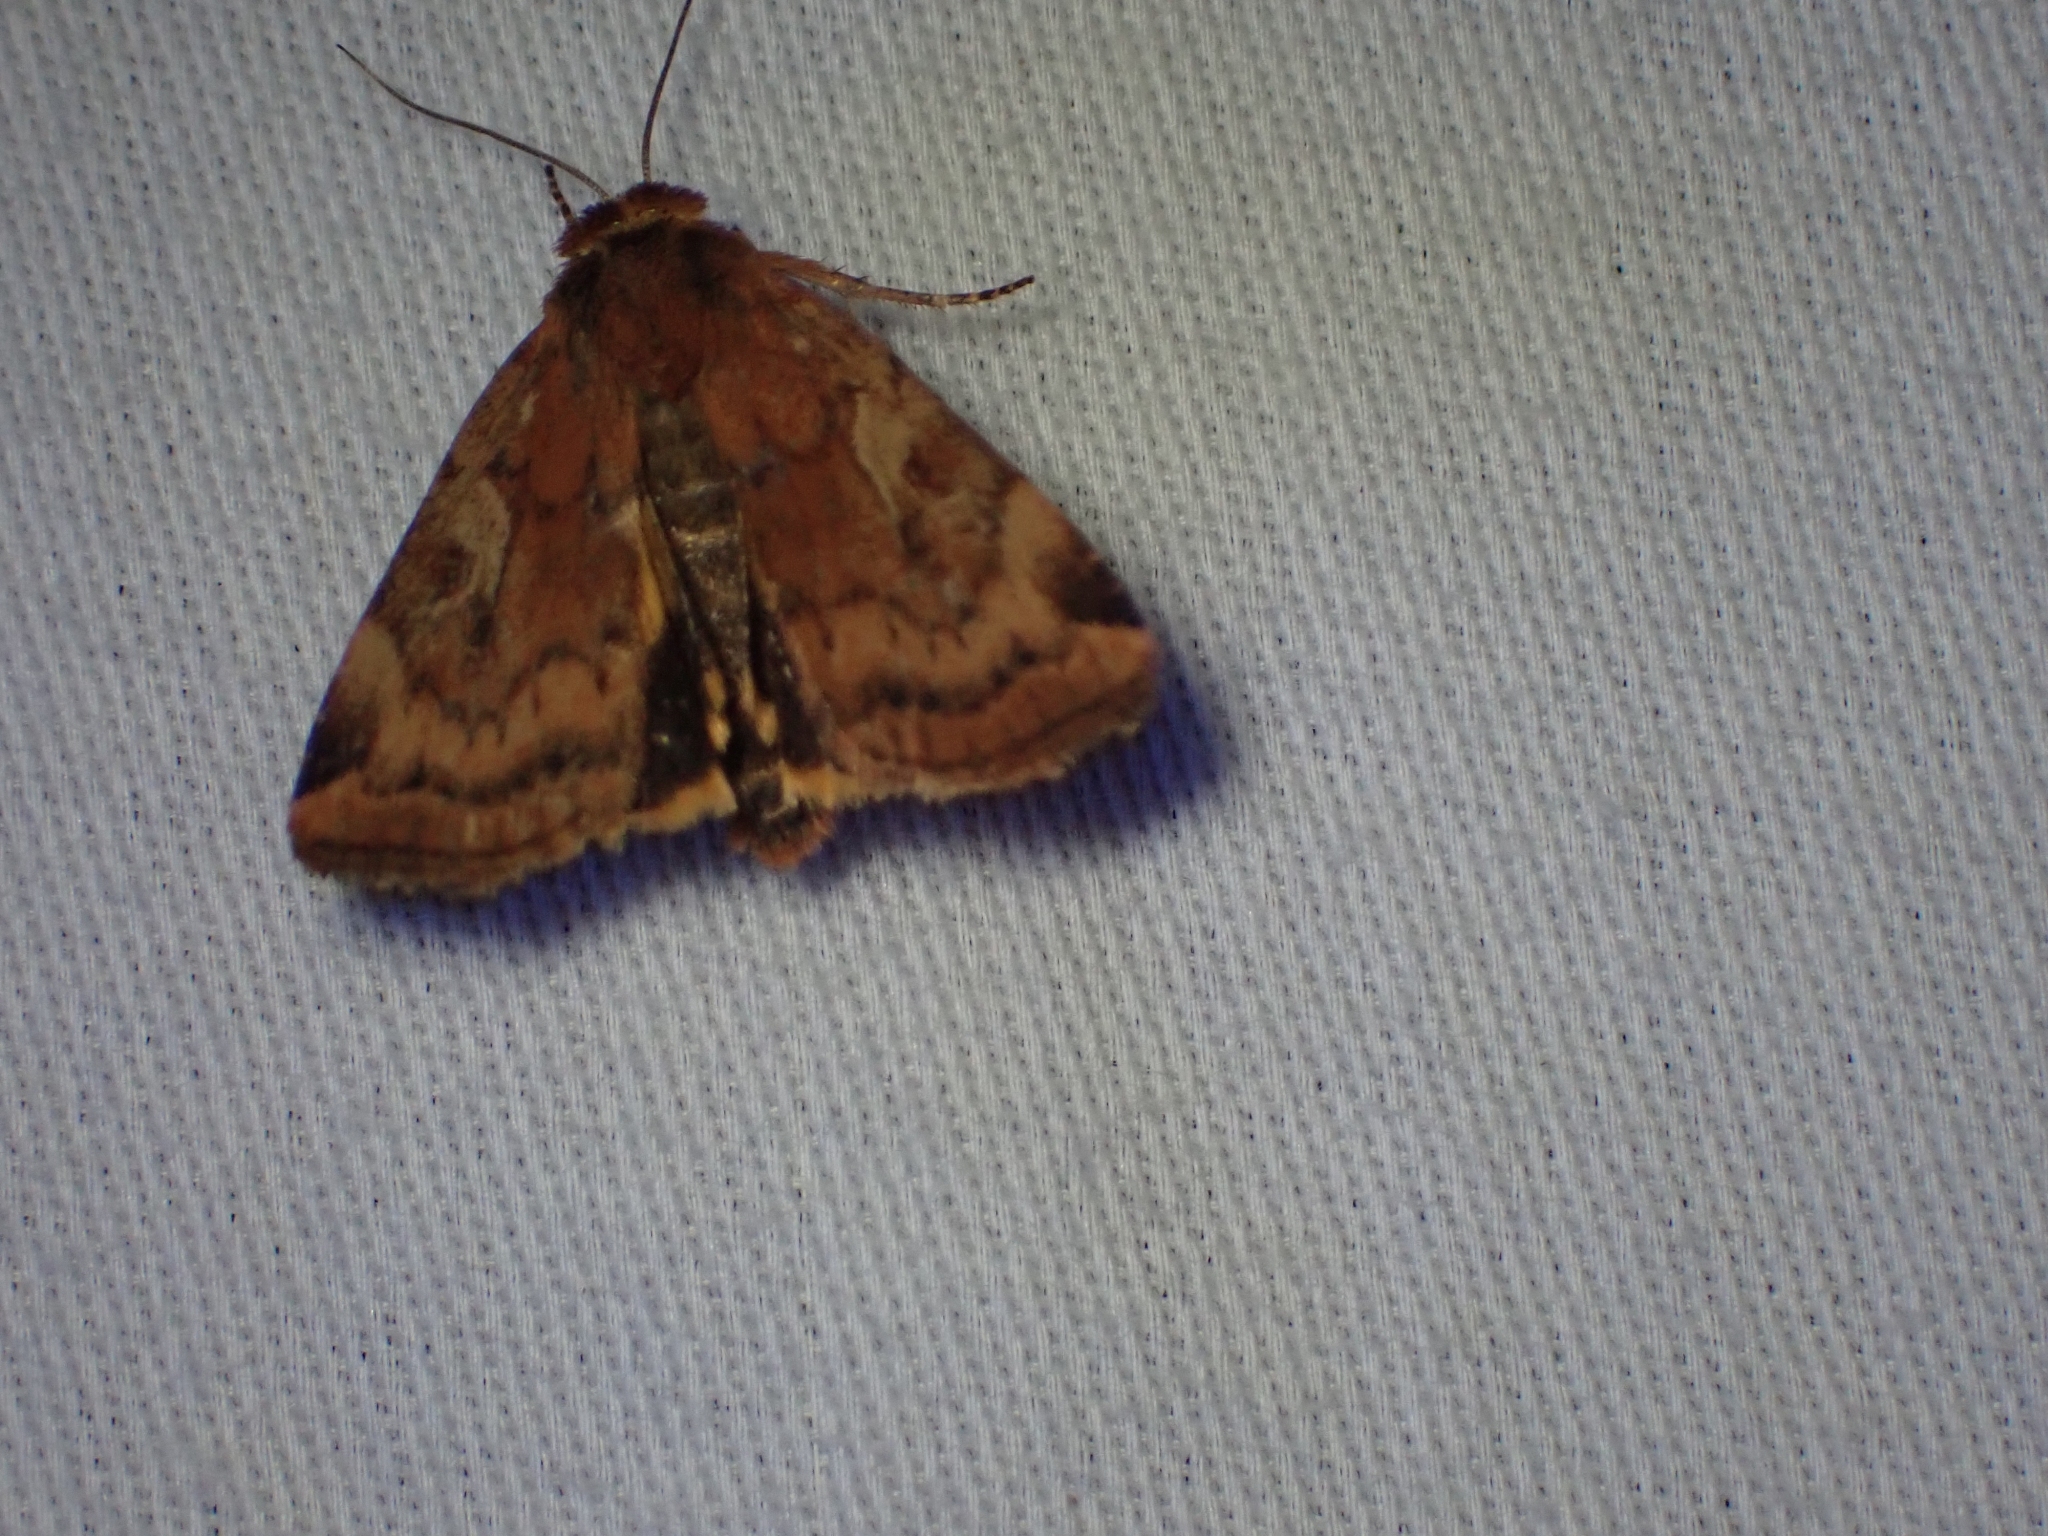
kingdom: Animalia
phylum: Arthropoda
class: Insecta
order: Lepidoptera
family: Noctuidae
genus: Cryptocala
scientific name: Cryptocala acadiensis
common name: Catocaline dart
